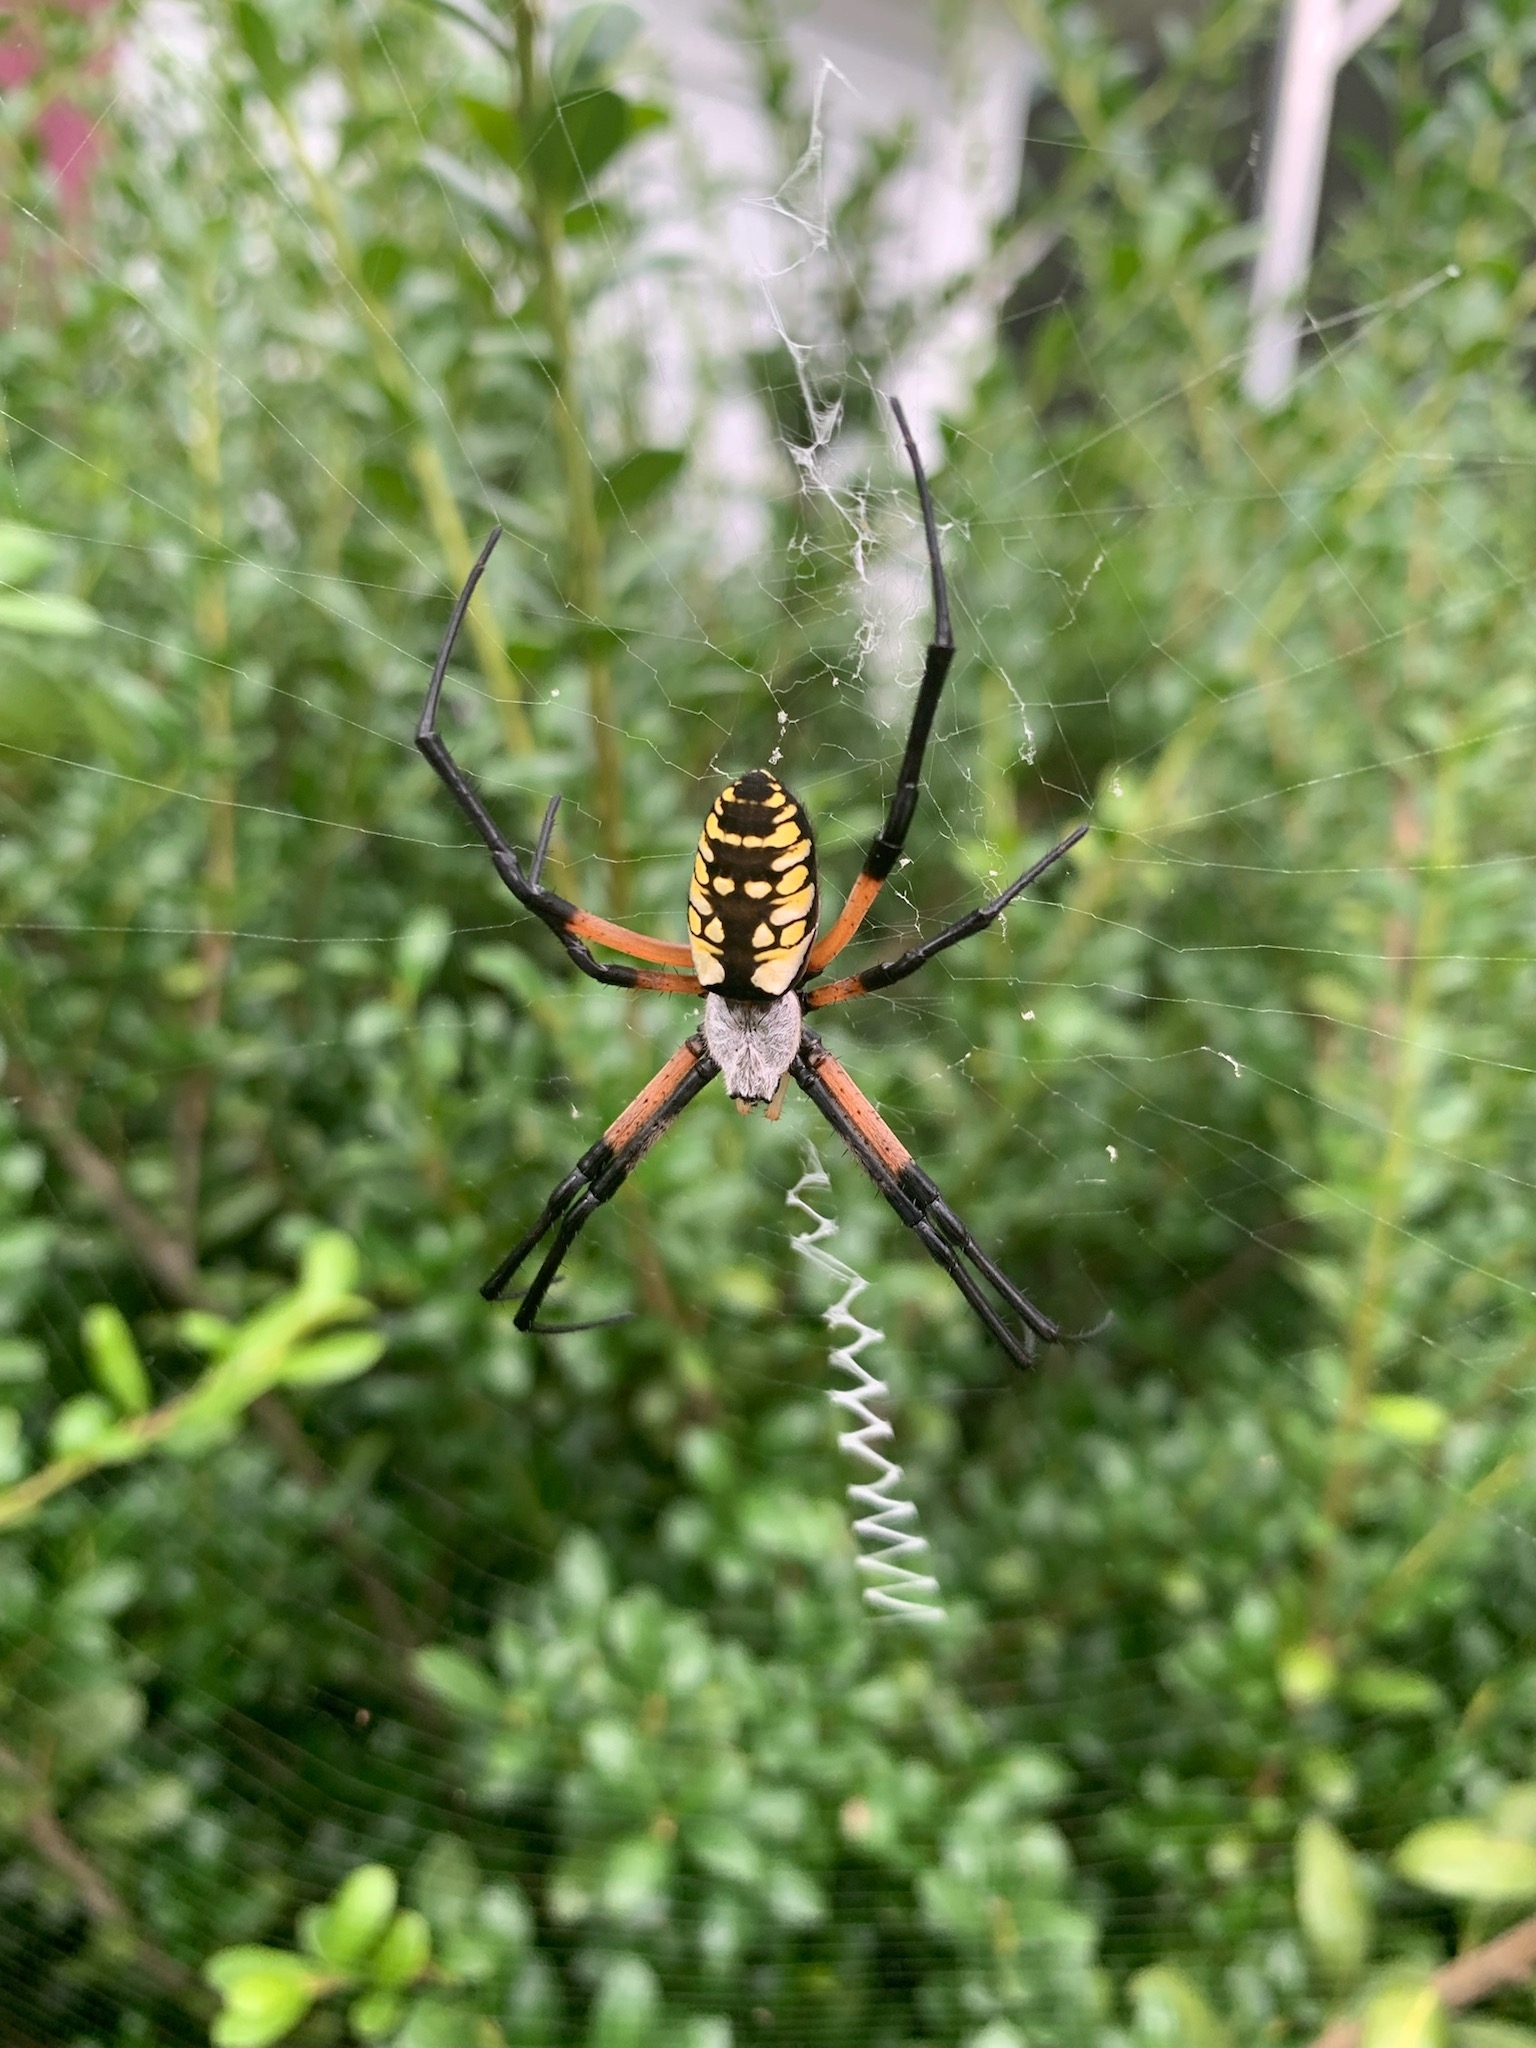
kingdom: Animalia
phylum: Arthropoda
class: Arachnida
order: Araneae
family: Araneidae
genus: Argiope
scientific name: Argiope aurantia
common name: Orb weavers
